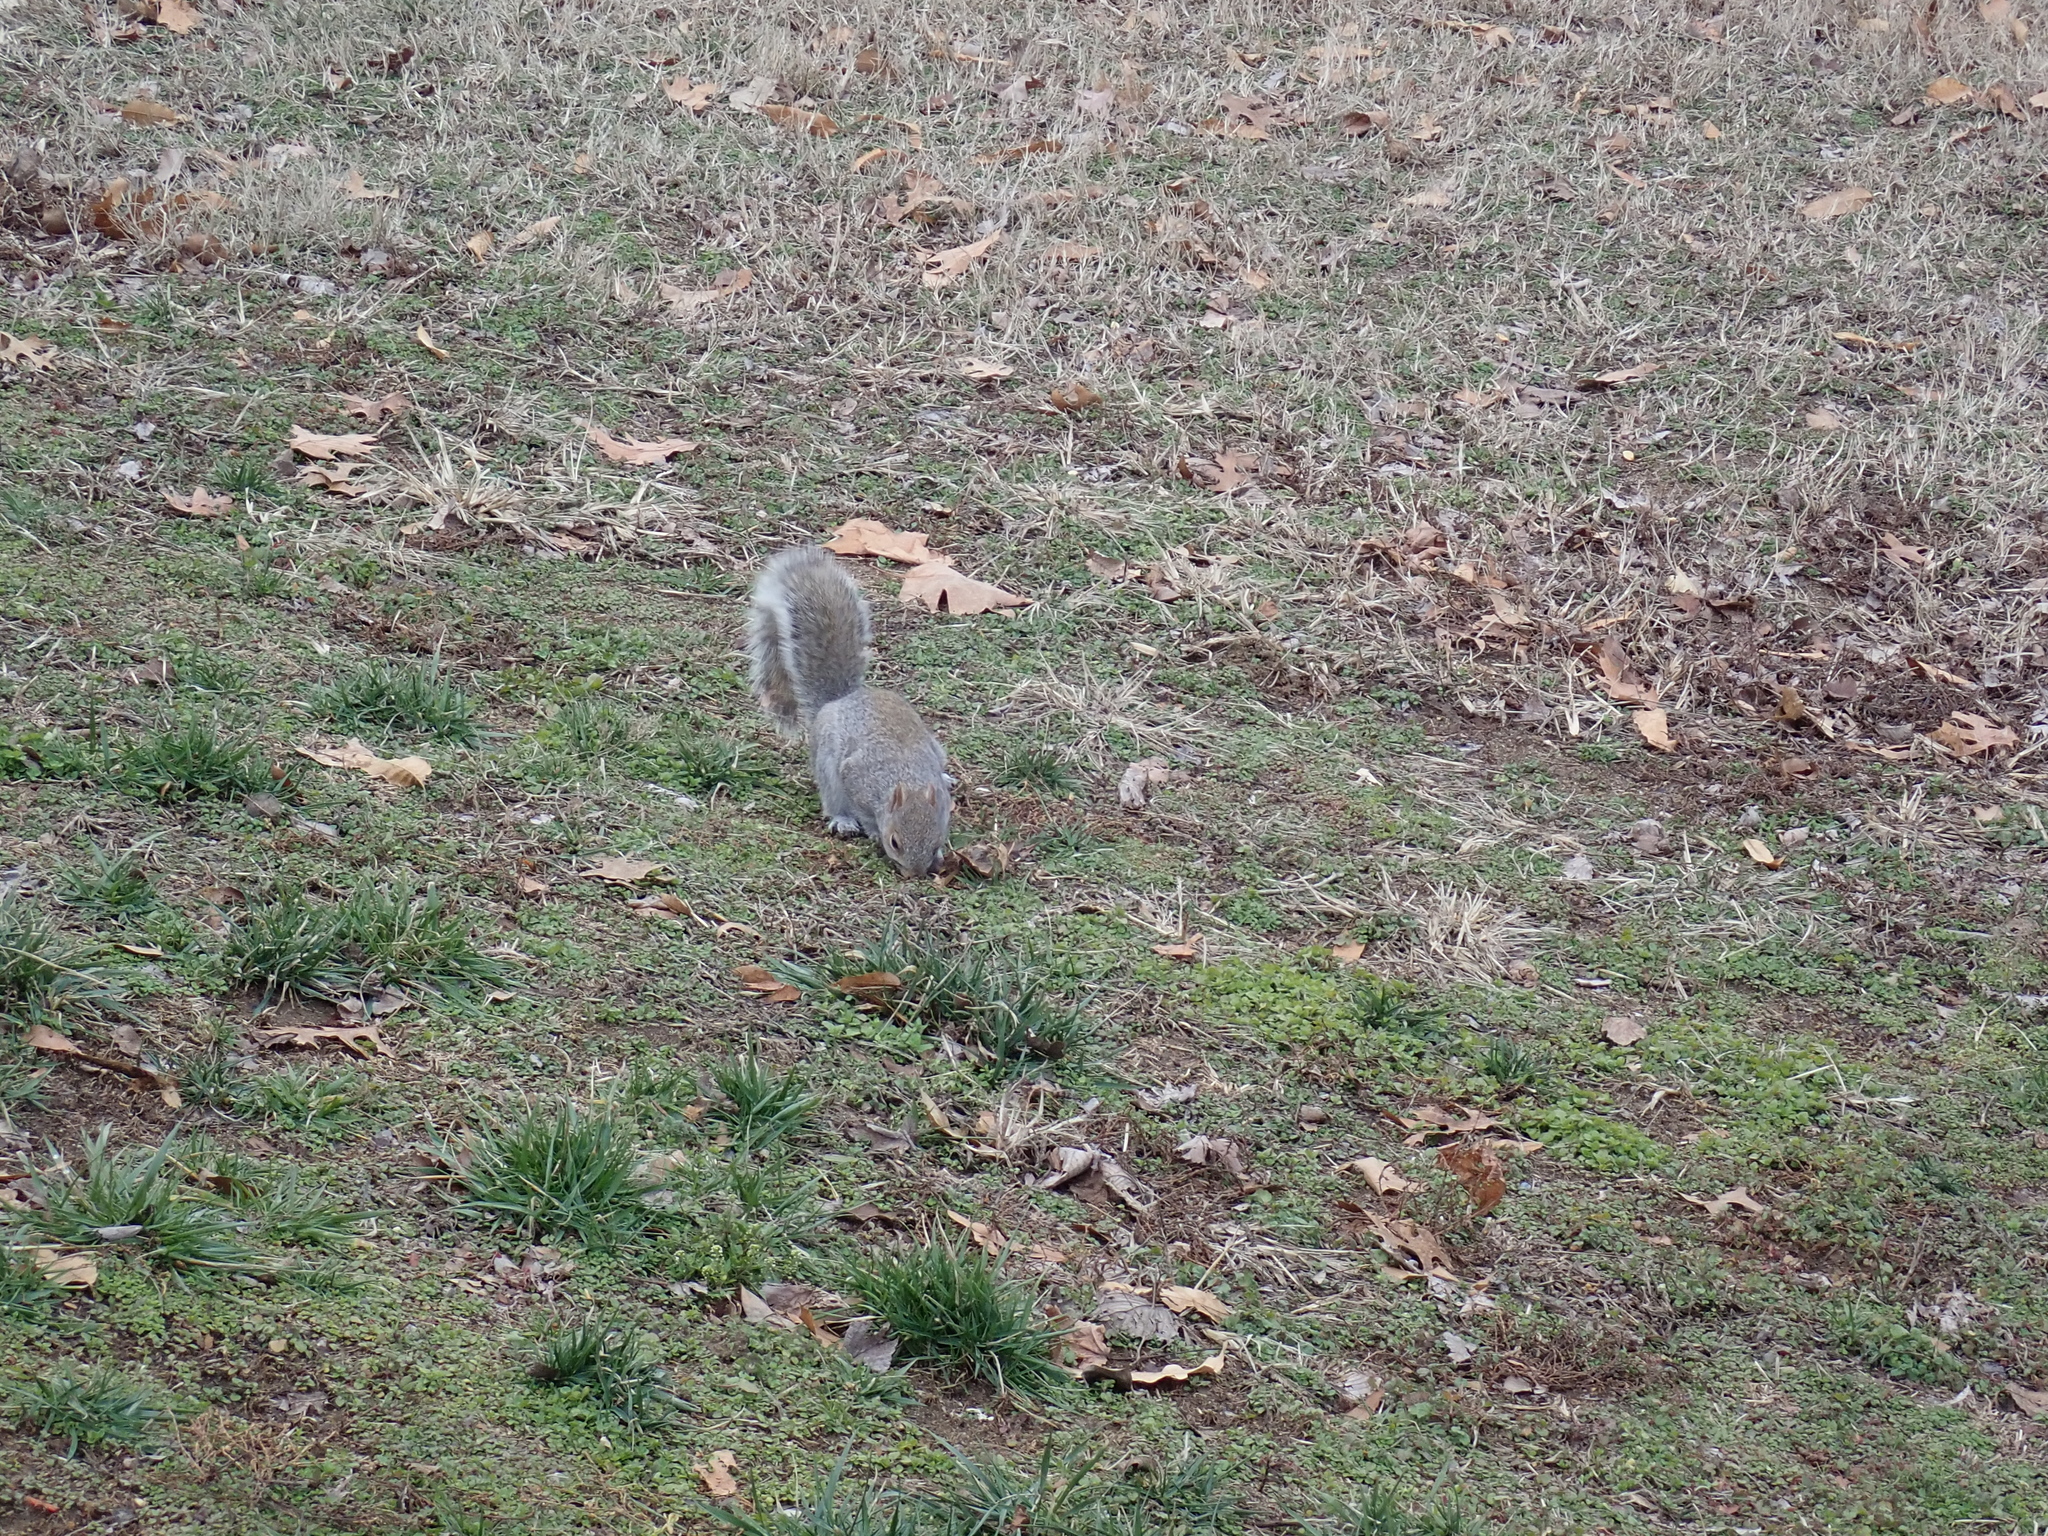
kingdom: Animalia
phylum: Chordata
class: Mammalia
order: Rodentia
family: Sciuridae
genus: Sciurus
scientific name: Sciurus carolinensis
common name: Eastern gray squirrel
